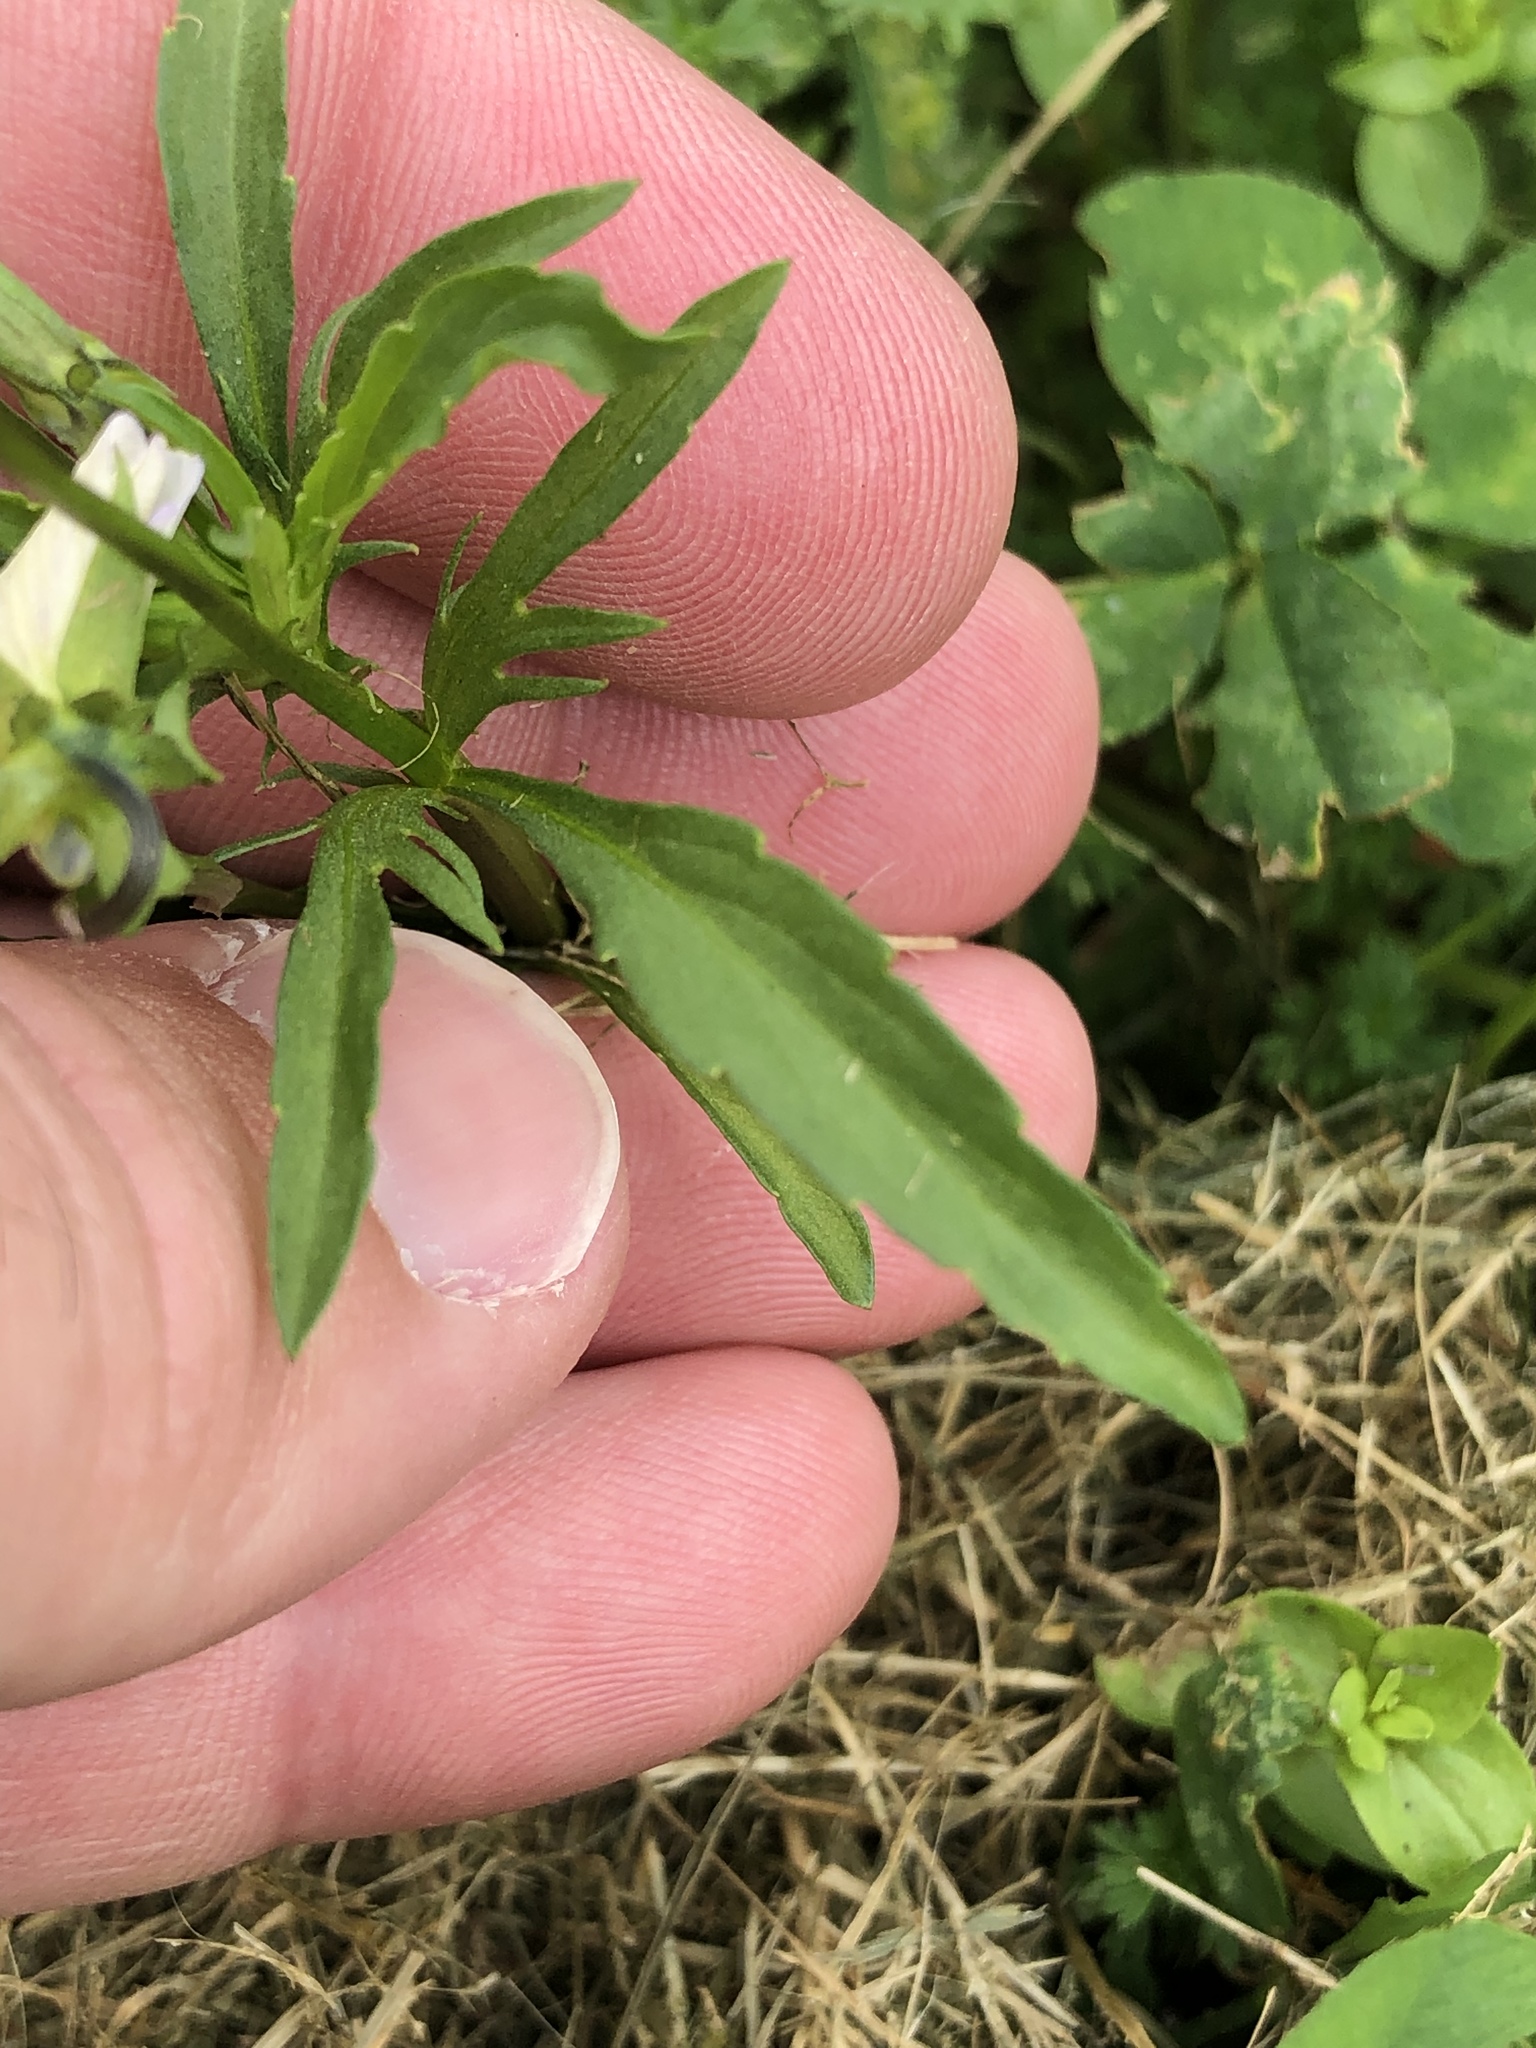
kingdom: Plantae
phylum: Tracheophyta
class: Magnoliopsida
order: Malpighiales
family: Violaceae
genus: Viola
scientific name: Viola tricolor
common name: Pansy
